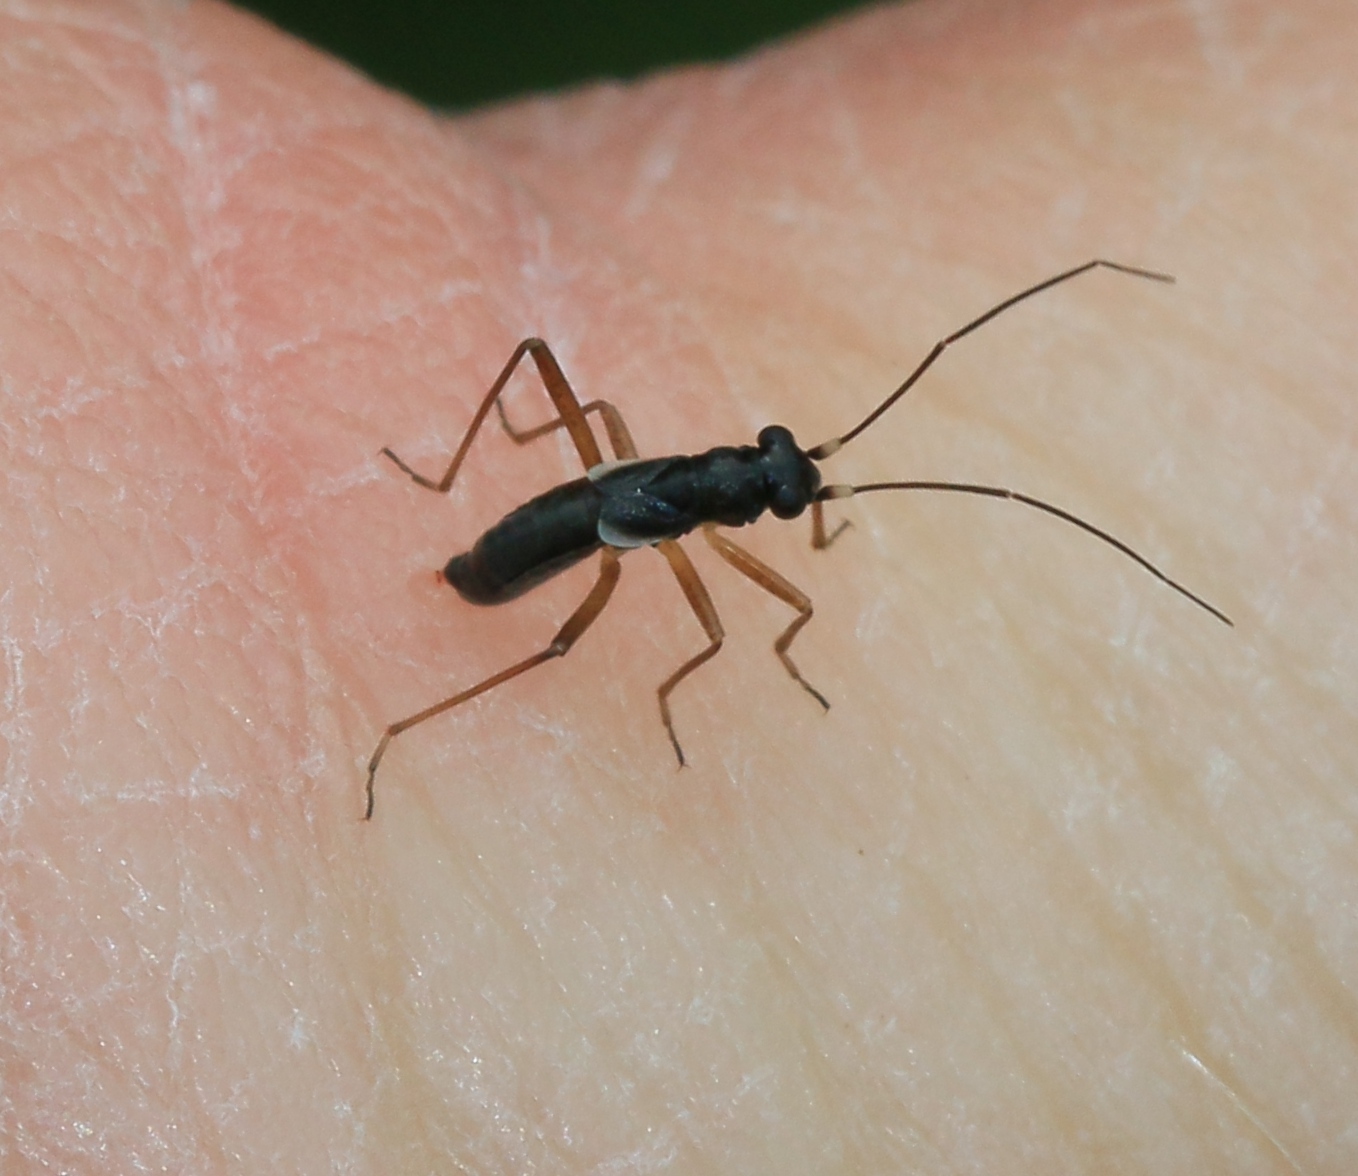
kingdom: Animalia
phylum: Arthropoda
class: Insecta
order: Hemiptera
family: Miridae
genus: Pithanus
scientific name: Pithanus maerkelii
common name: Plant bug
